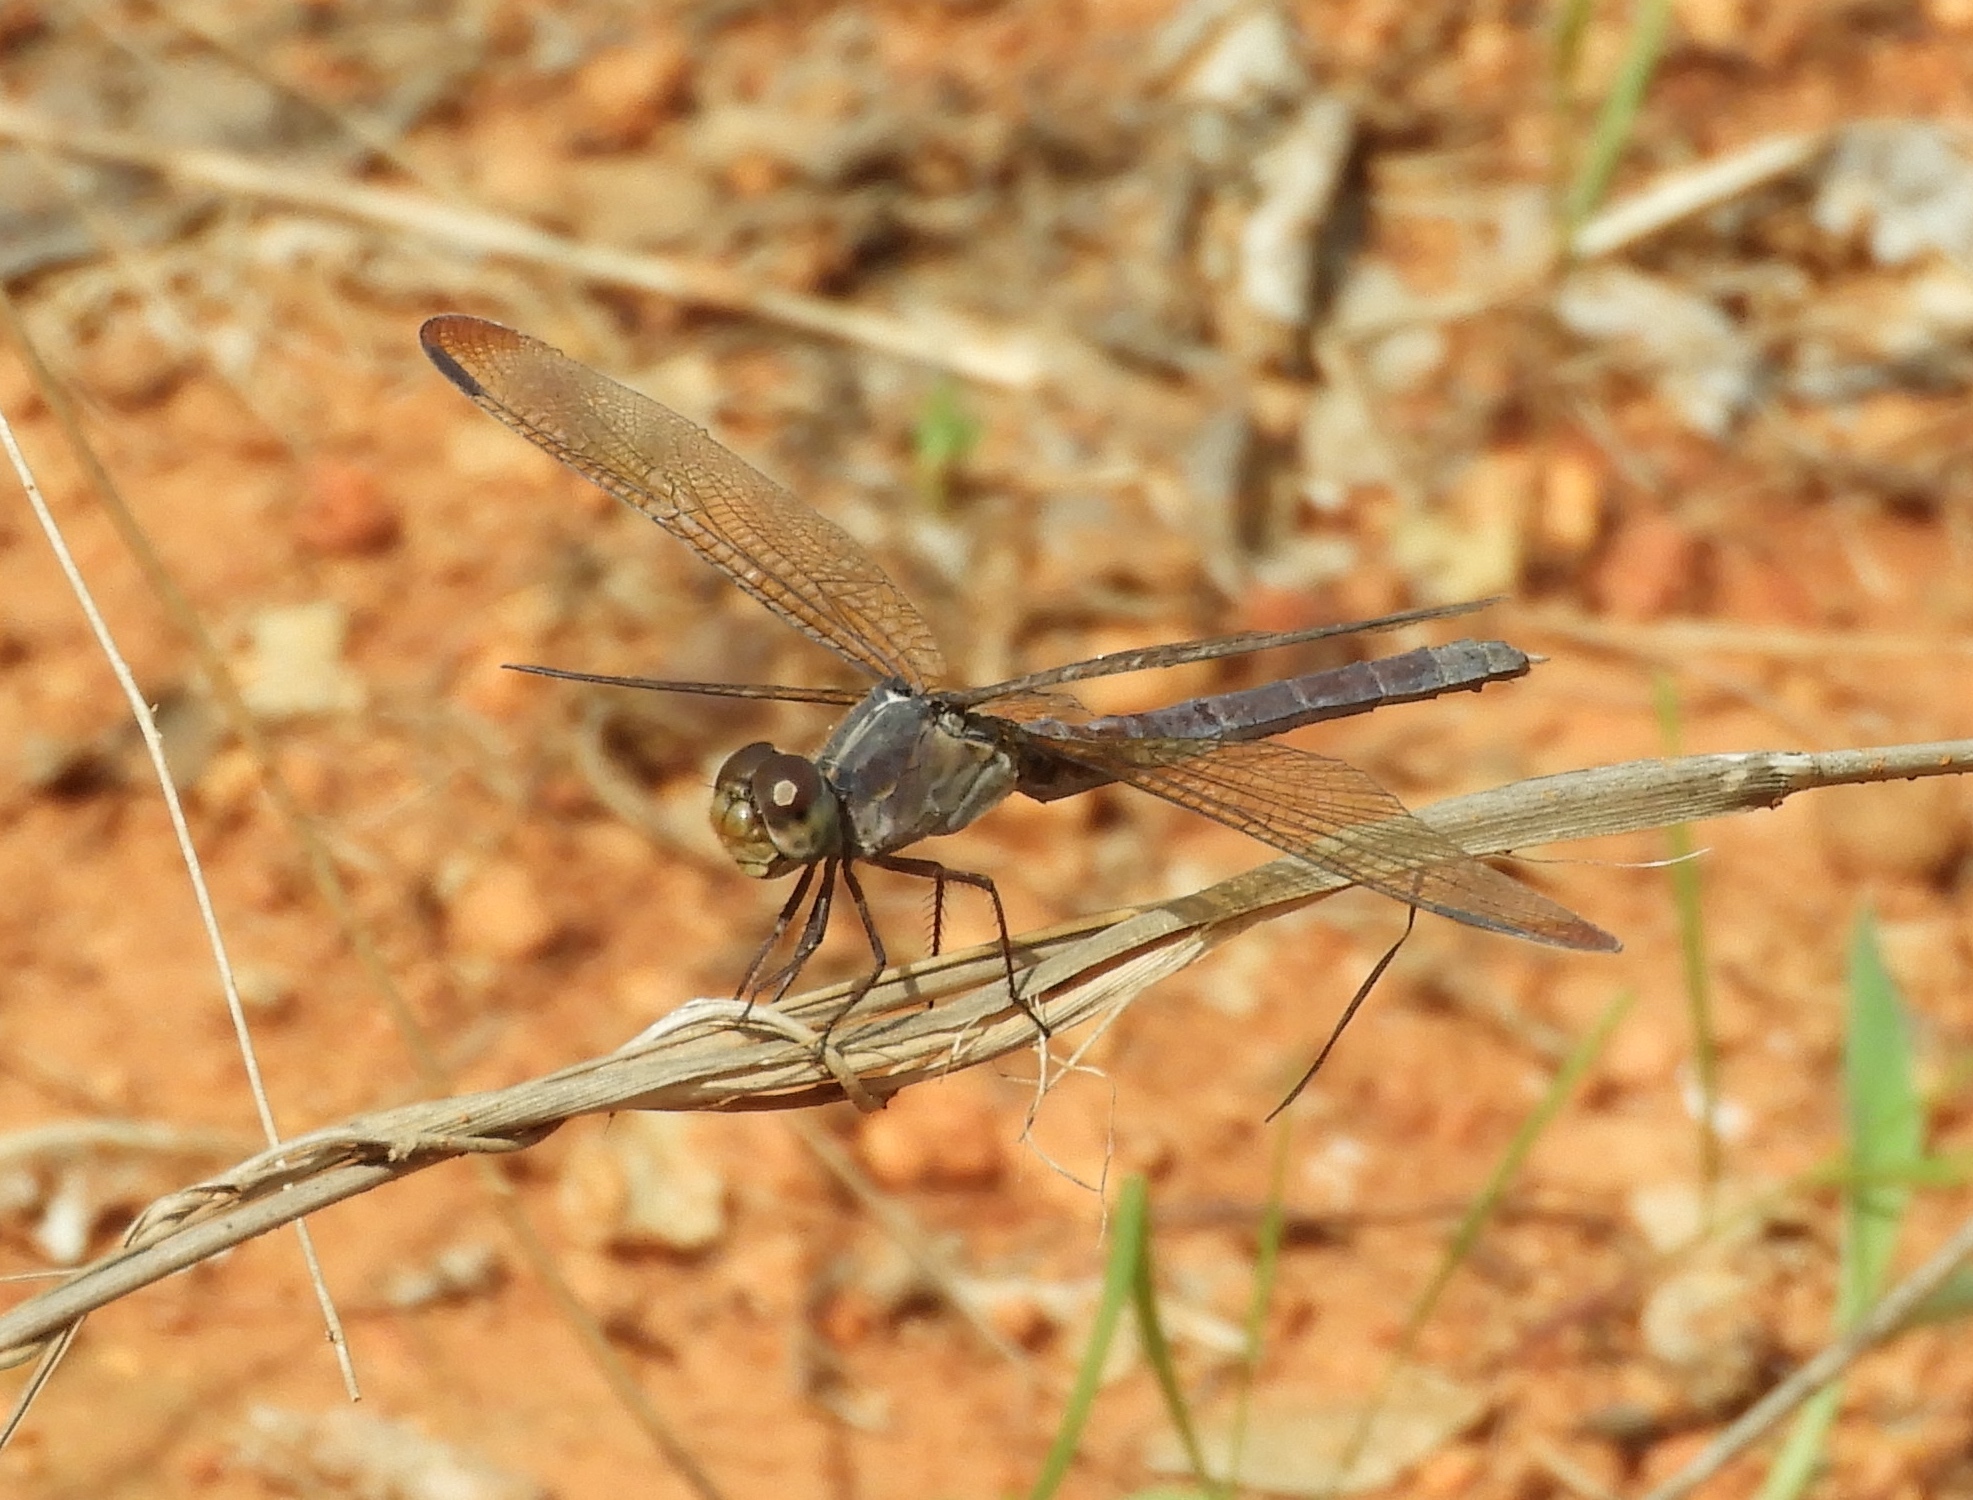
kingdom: Animalia
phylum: Arthropoda
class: Insecta
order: Odonata
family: Libellulidae
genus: Erythrodiplax
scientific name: Erythrodiplax funerea
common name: Black-winged dragonlet
